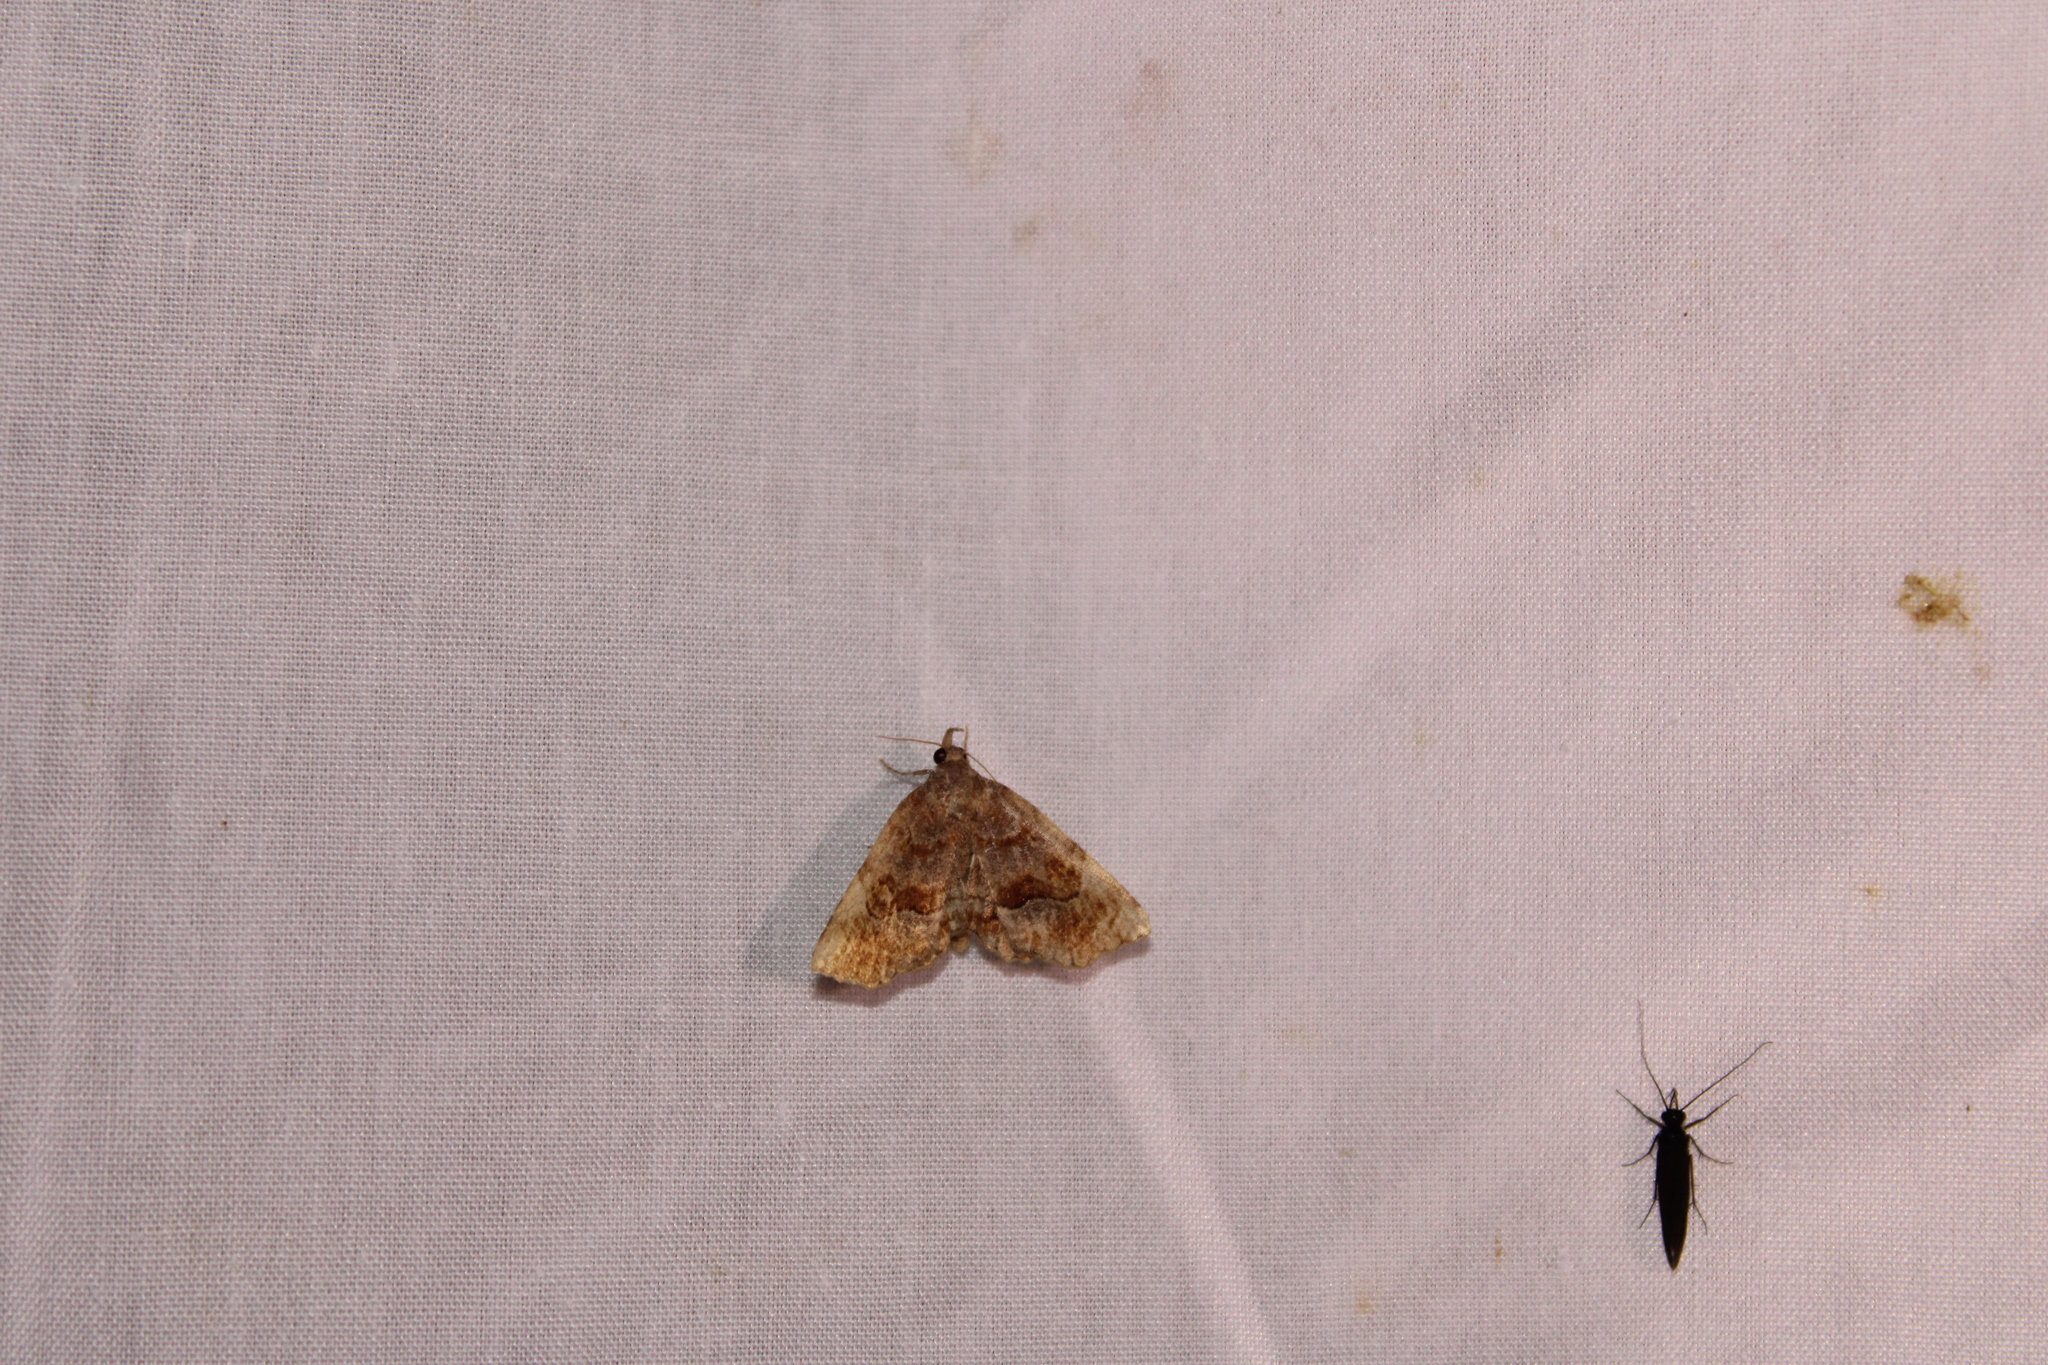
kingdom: Animalia
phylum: Arthropoda
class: Insecta
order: Lepidoptera
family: Erebidae
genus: Pangrapta
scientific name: Pangrapta decoralis
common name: Decorated owlet
